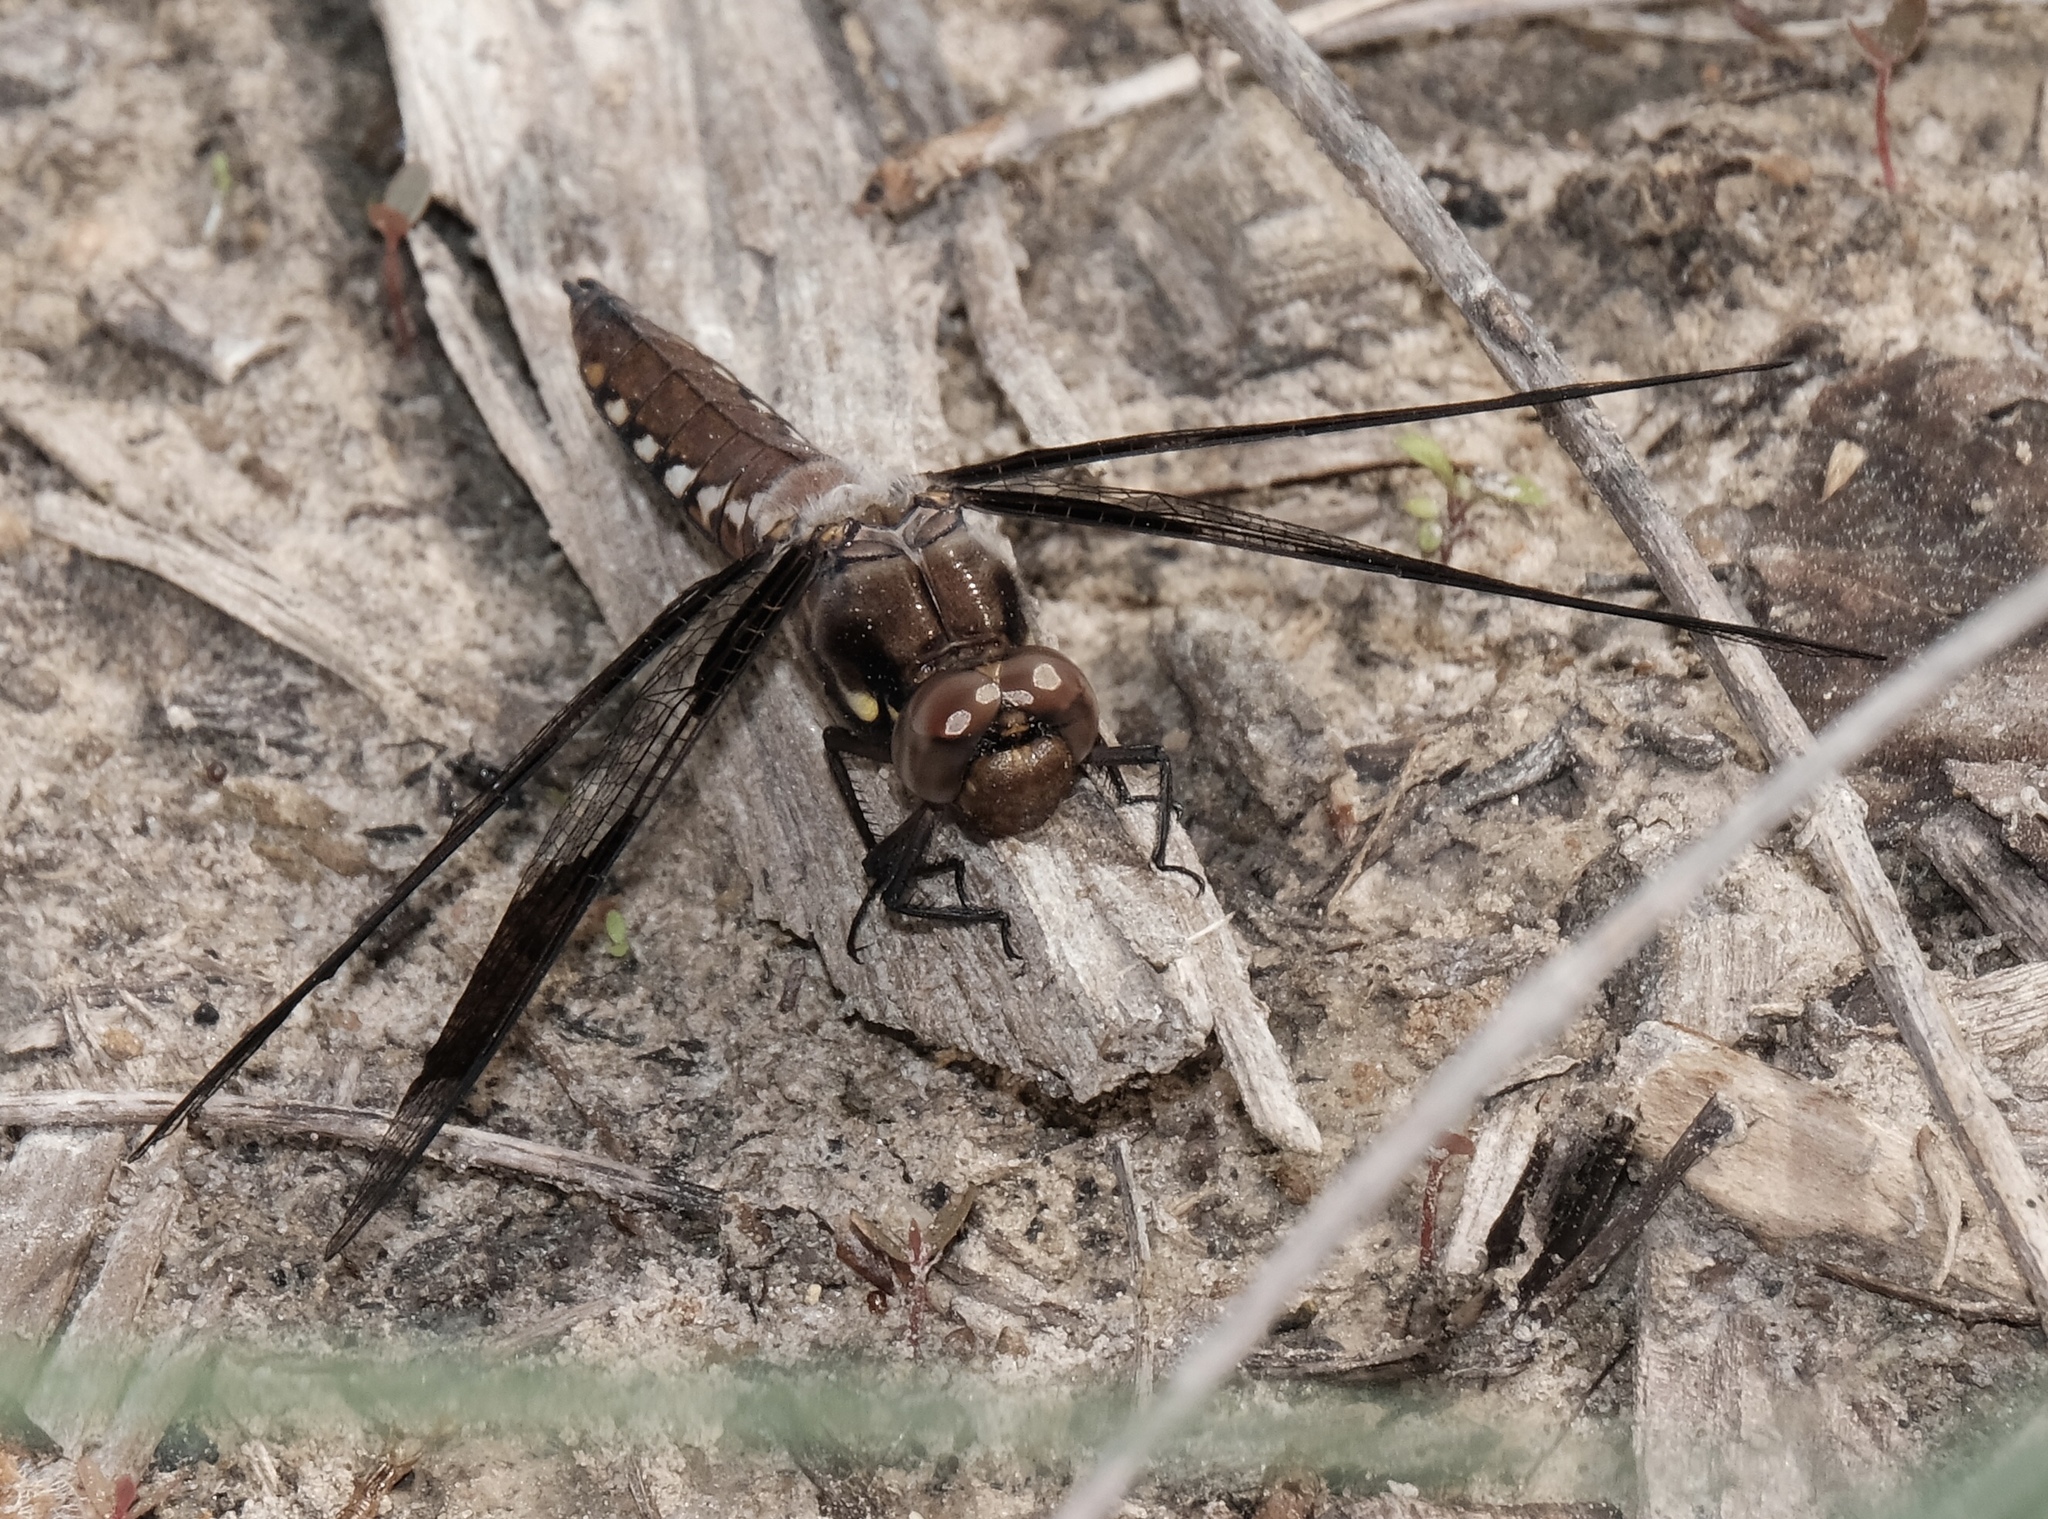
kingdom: Animalia
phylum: Arthropoda
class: Insecta
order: Odonata
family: Libellulidae
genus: Plathemis
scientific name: Plathemis lydia
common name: Common whitetail
